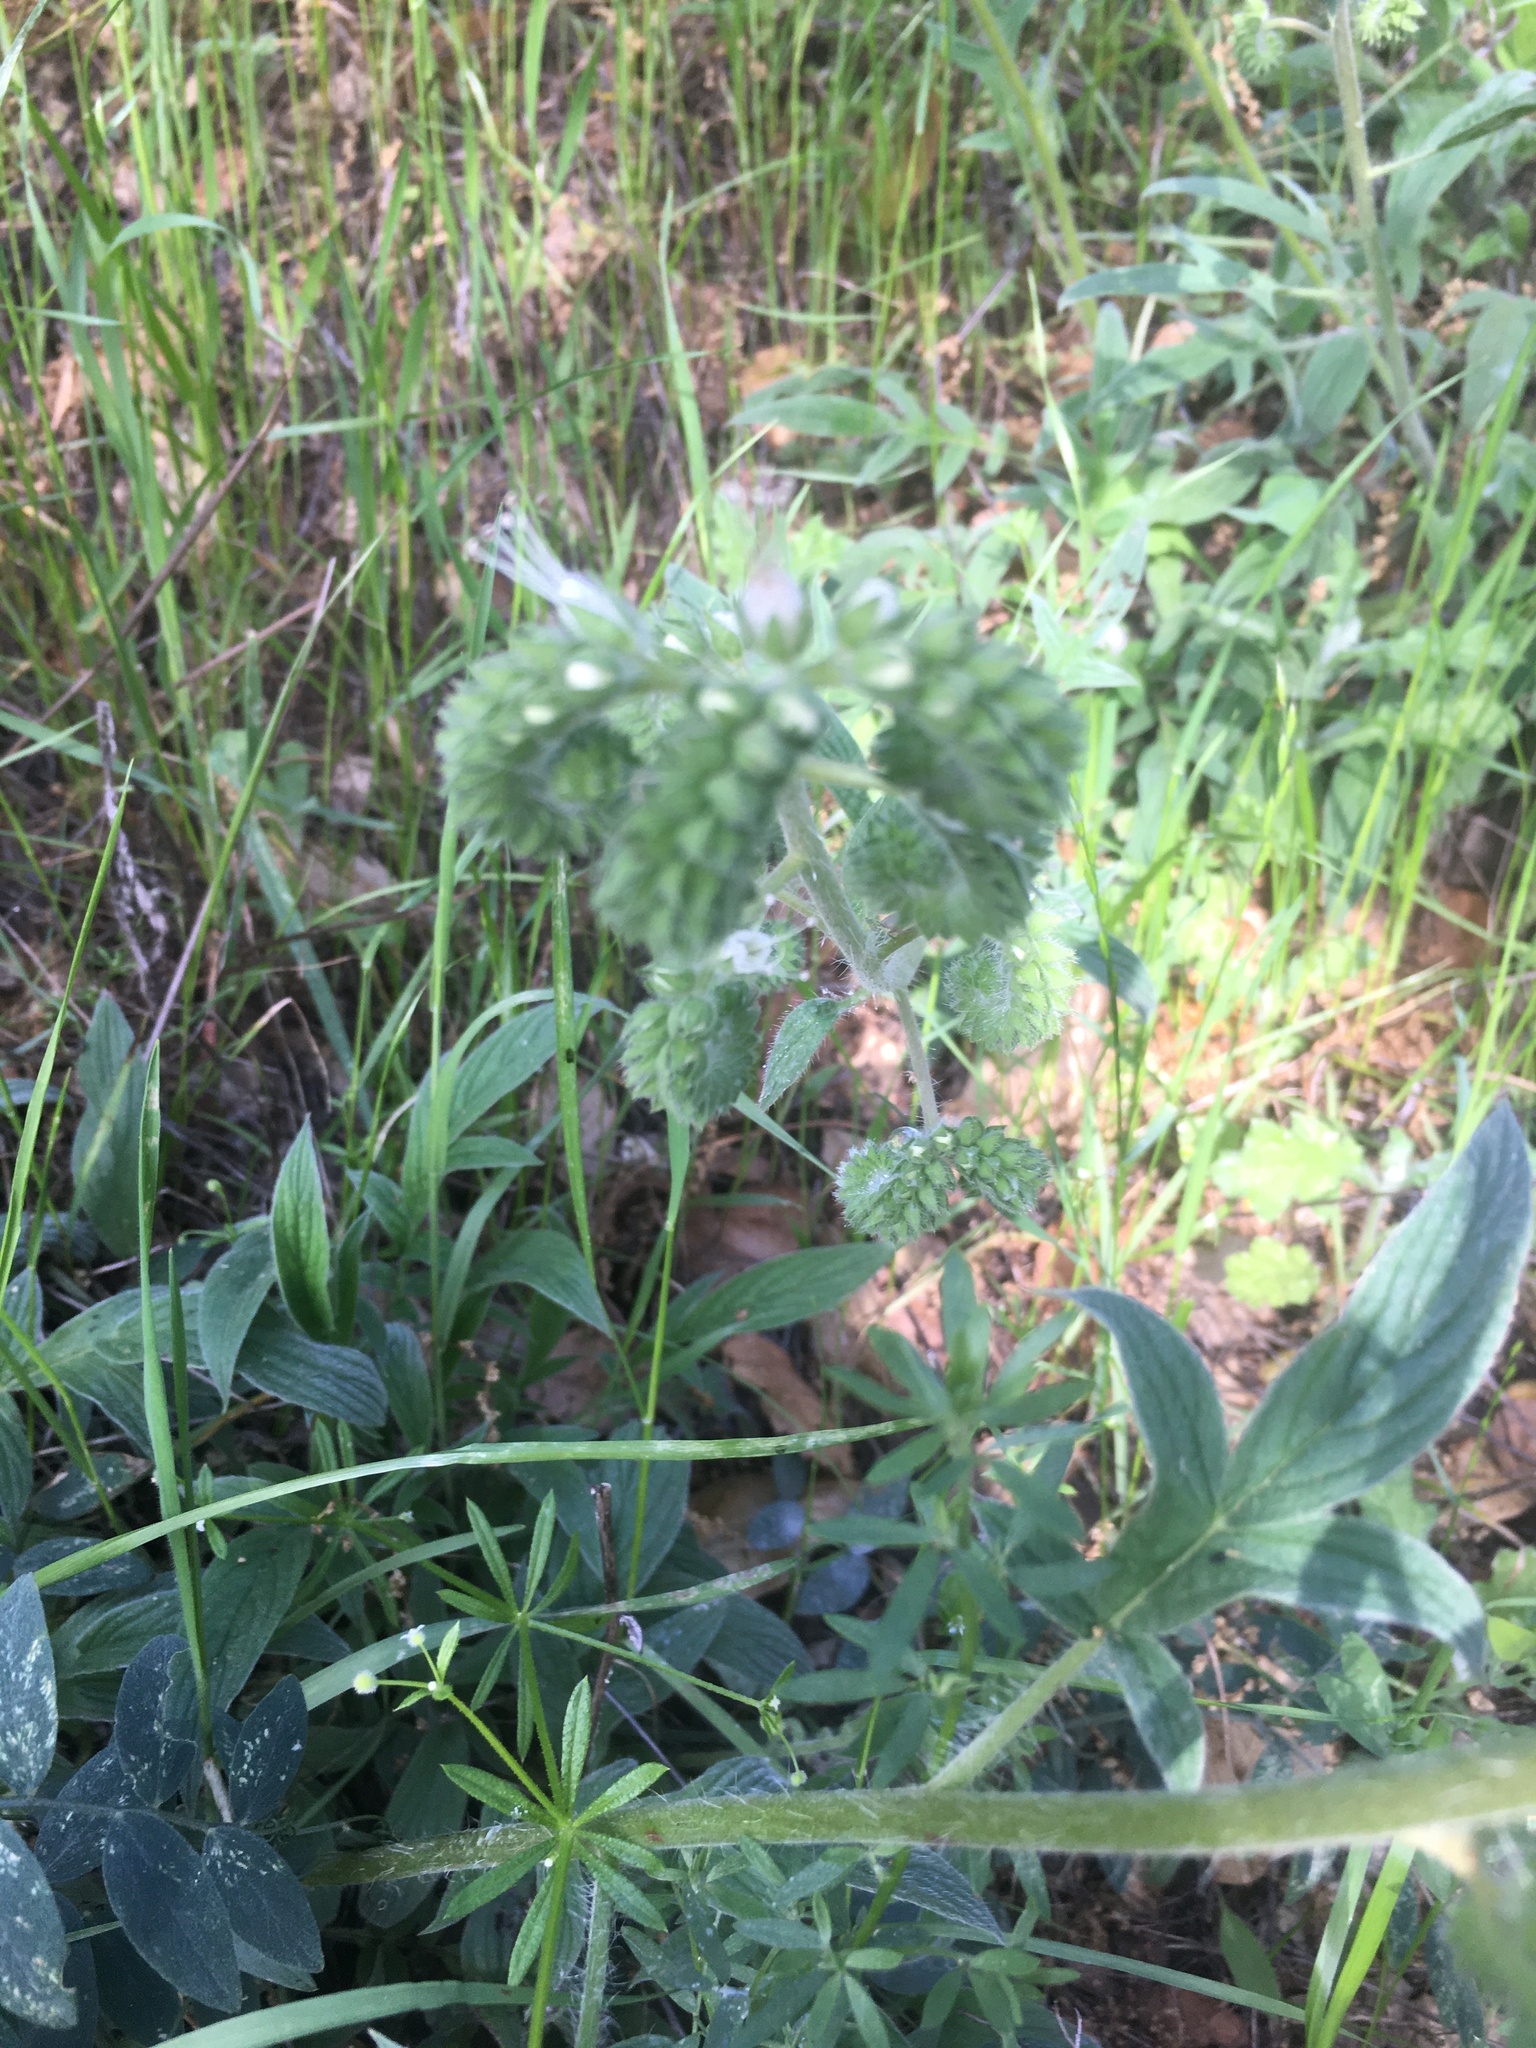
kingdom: Plantae
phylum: Tracheophyta
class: Magnoliopsida
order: Boraginales
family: Hydrophyllaceae
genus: Phacelia
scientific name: Phacelia imbricata
